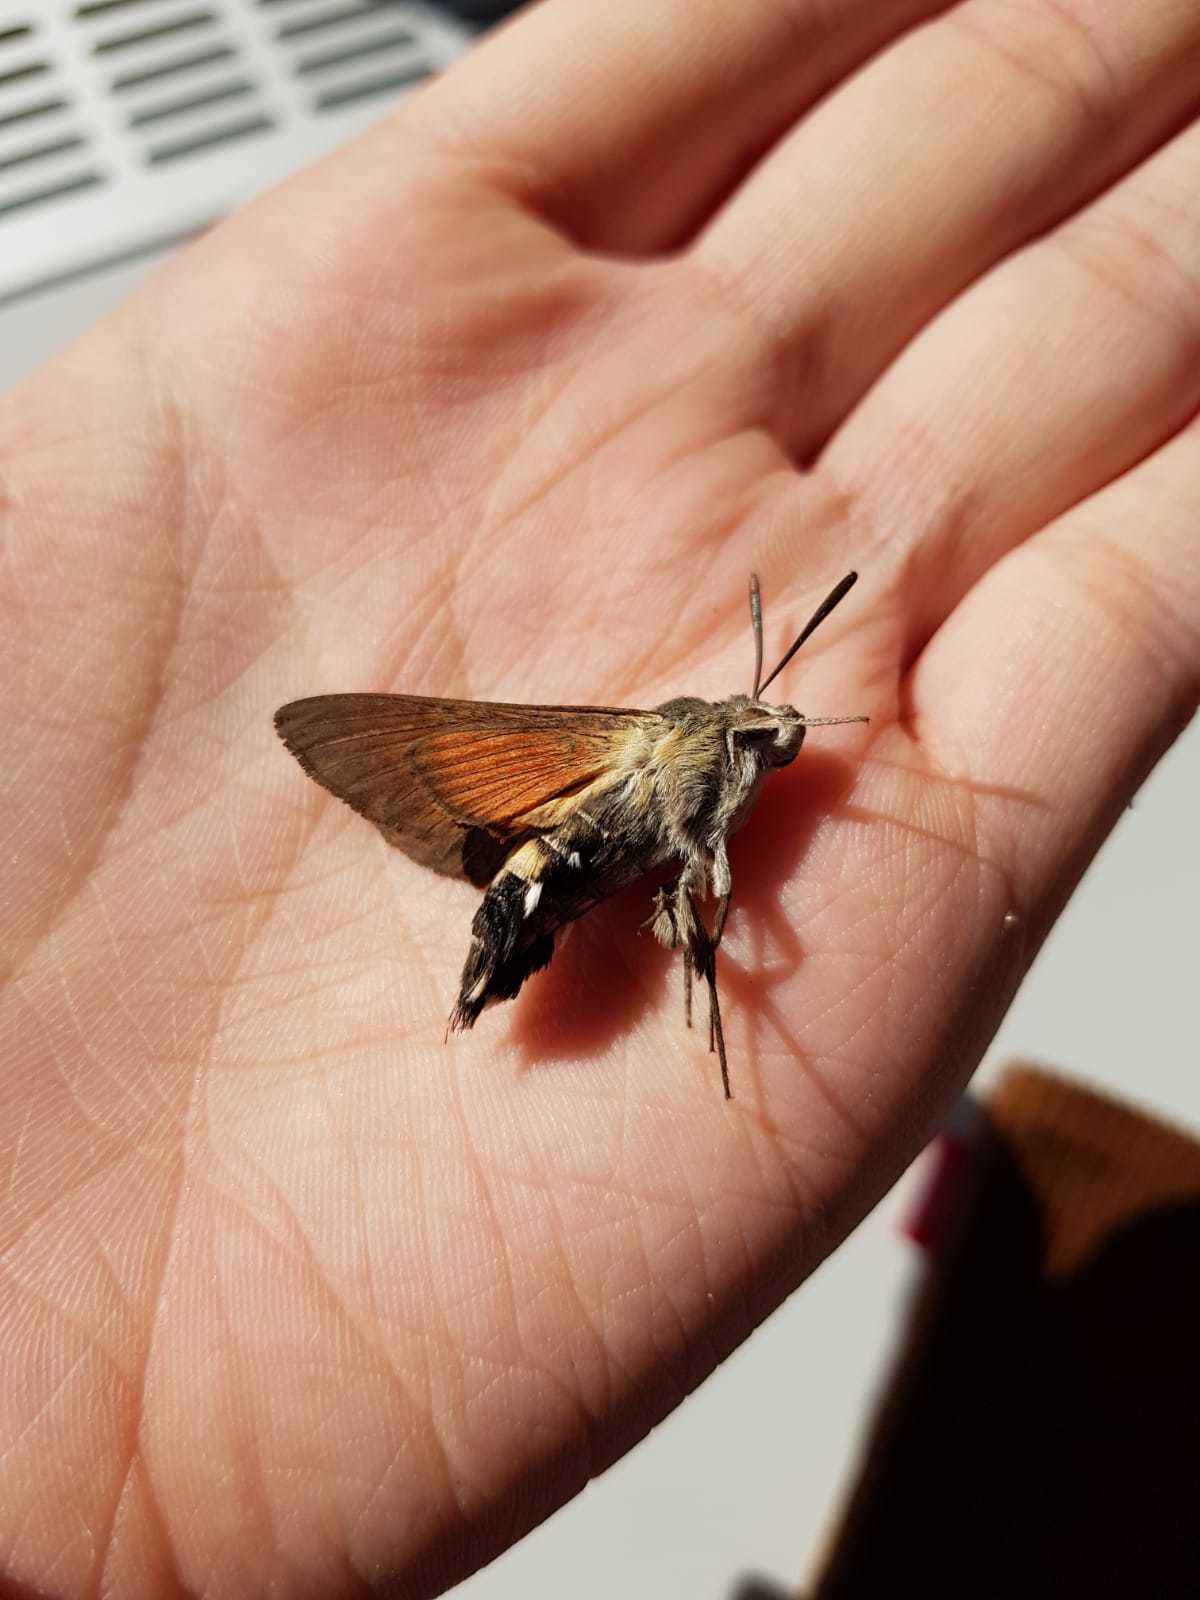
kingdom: Animalia
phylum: Arthropoda
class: Insecta
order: Lepidoptera
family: Sphingidae
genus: Macroglossum
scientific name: Macroglossum stellatarum
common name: Humming-bird hawk-moth
